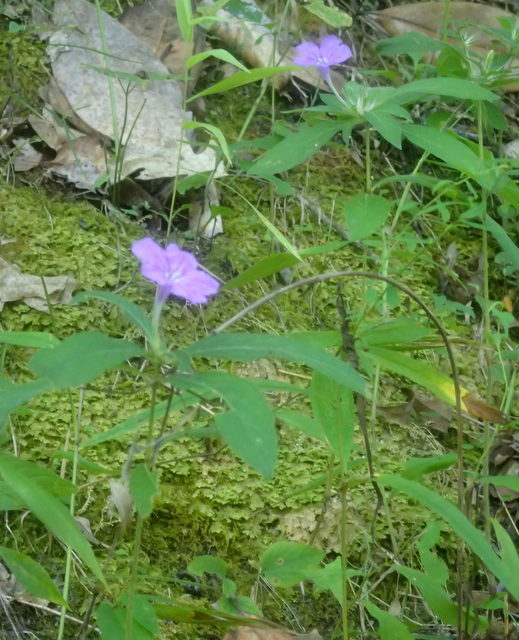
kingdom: Plantae
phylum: Tracheophyta
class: Magnoliopsida
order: Lamiales
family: Acanthaceae
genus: Ruellia
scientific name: Ruellia caroliniensis
